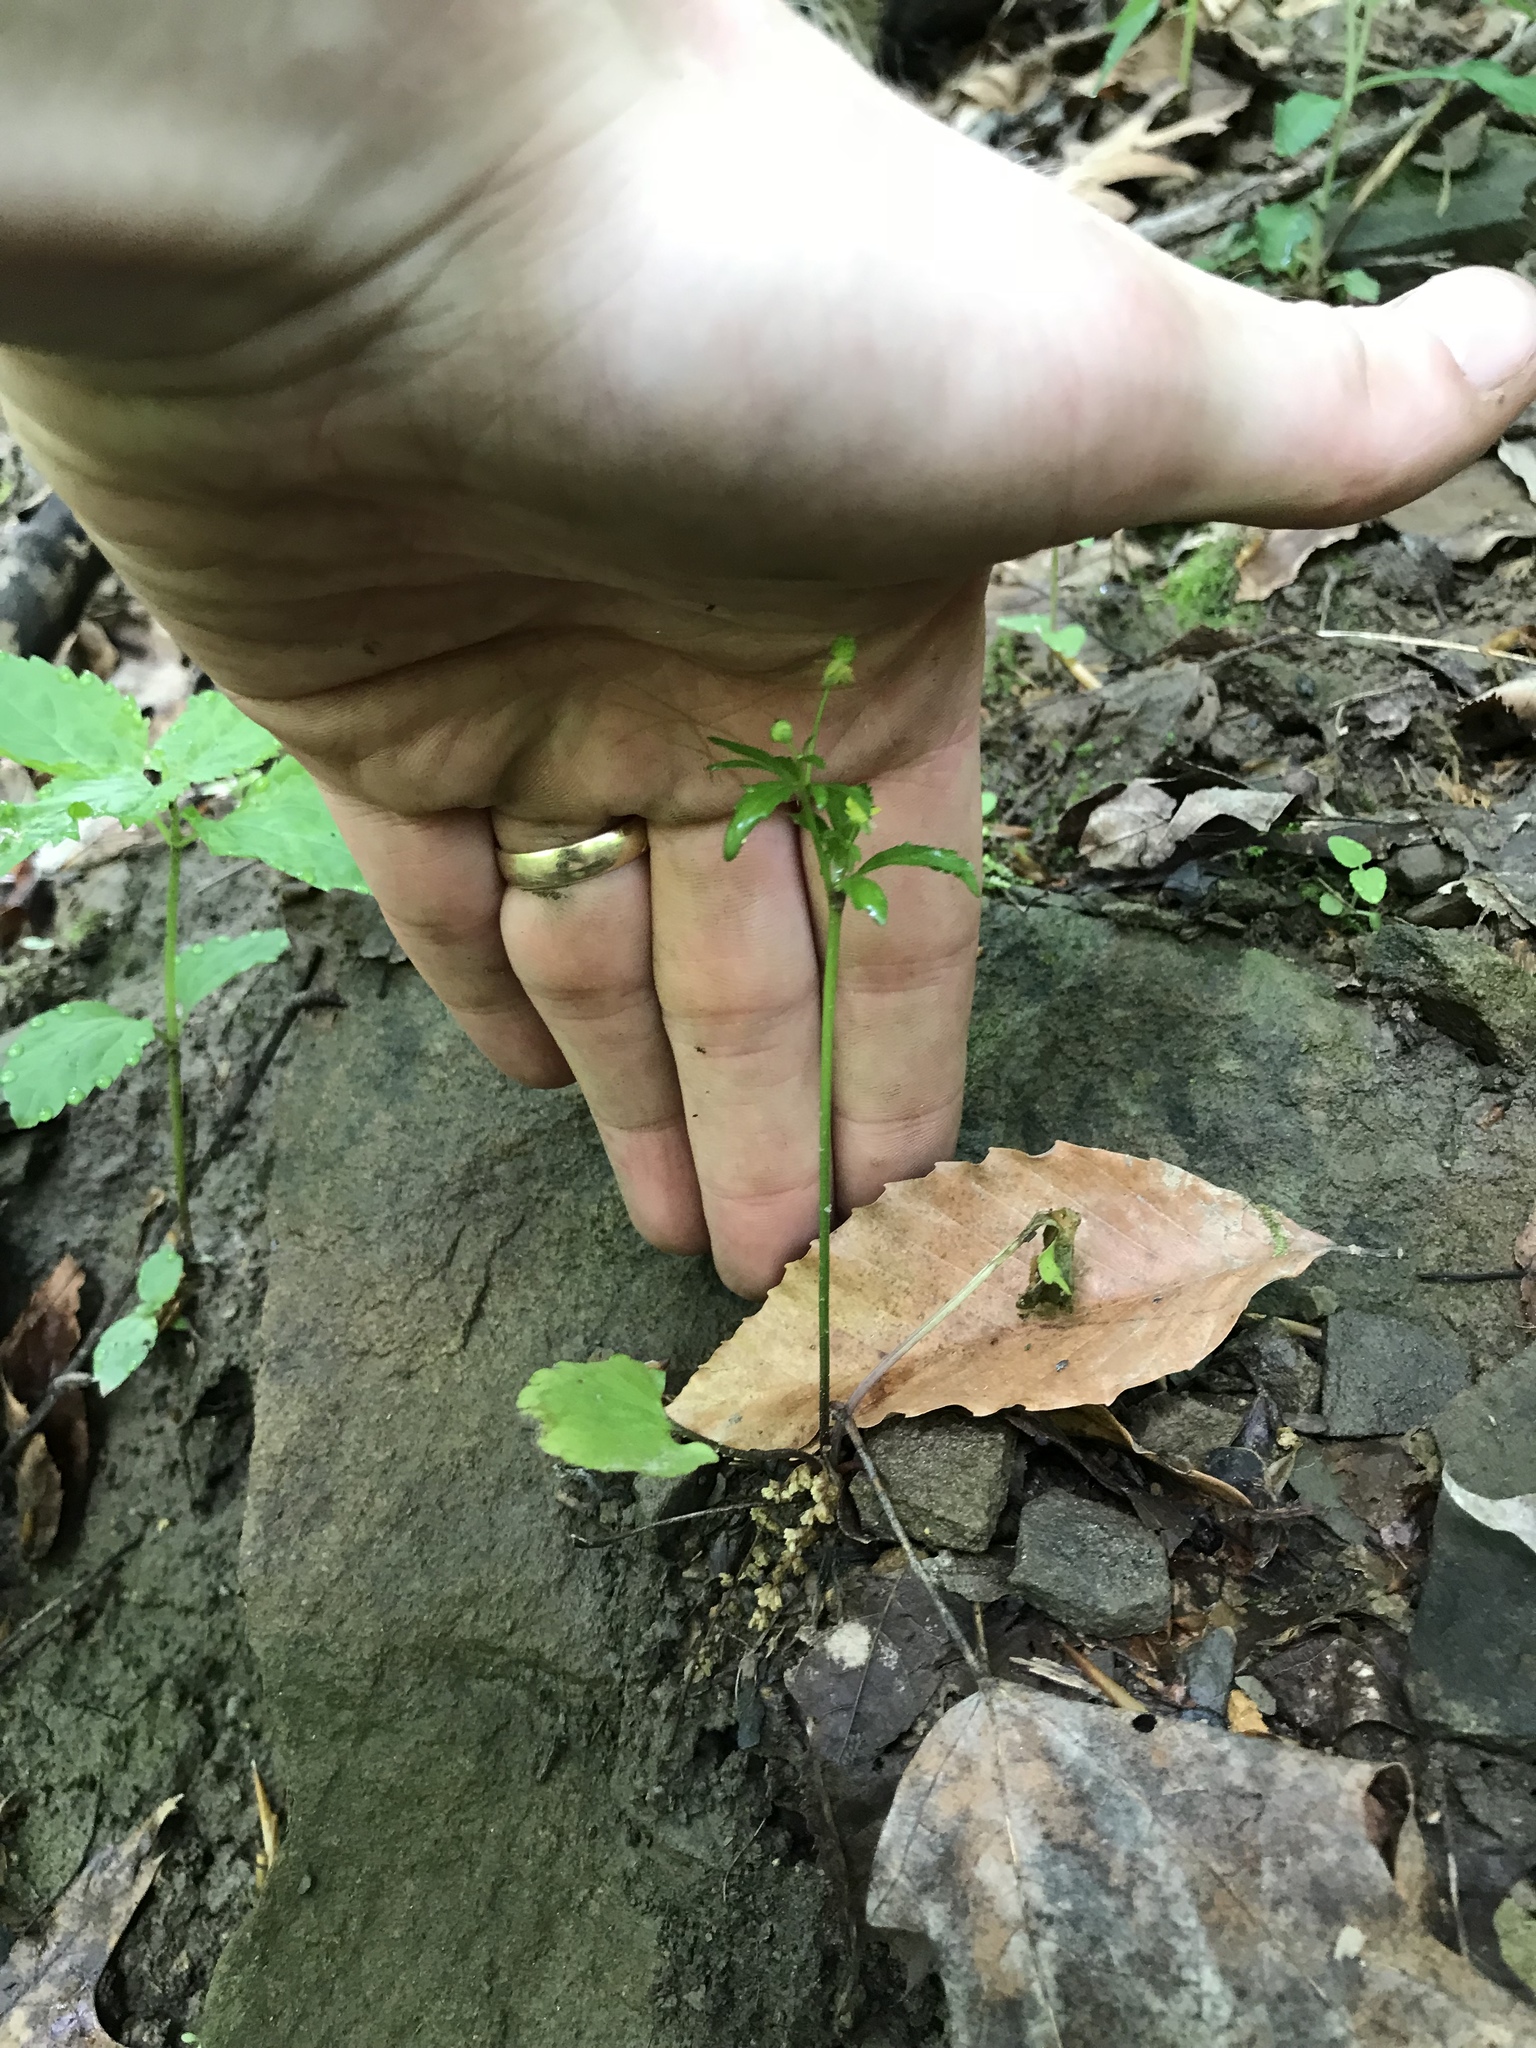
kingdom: Plantae
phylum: Tracheophyta
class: Magnoliopsida
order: Ranunculales
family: Ranunculaceae
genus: Ranunculus
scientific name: Ranunculus abortivus
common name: Early wood buttercup
